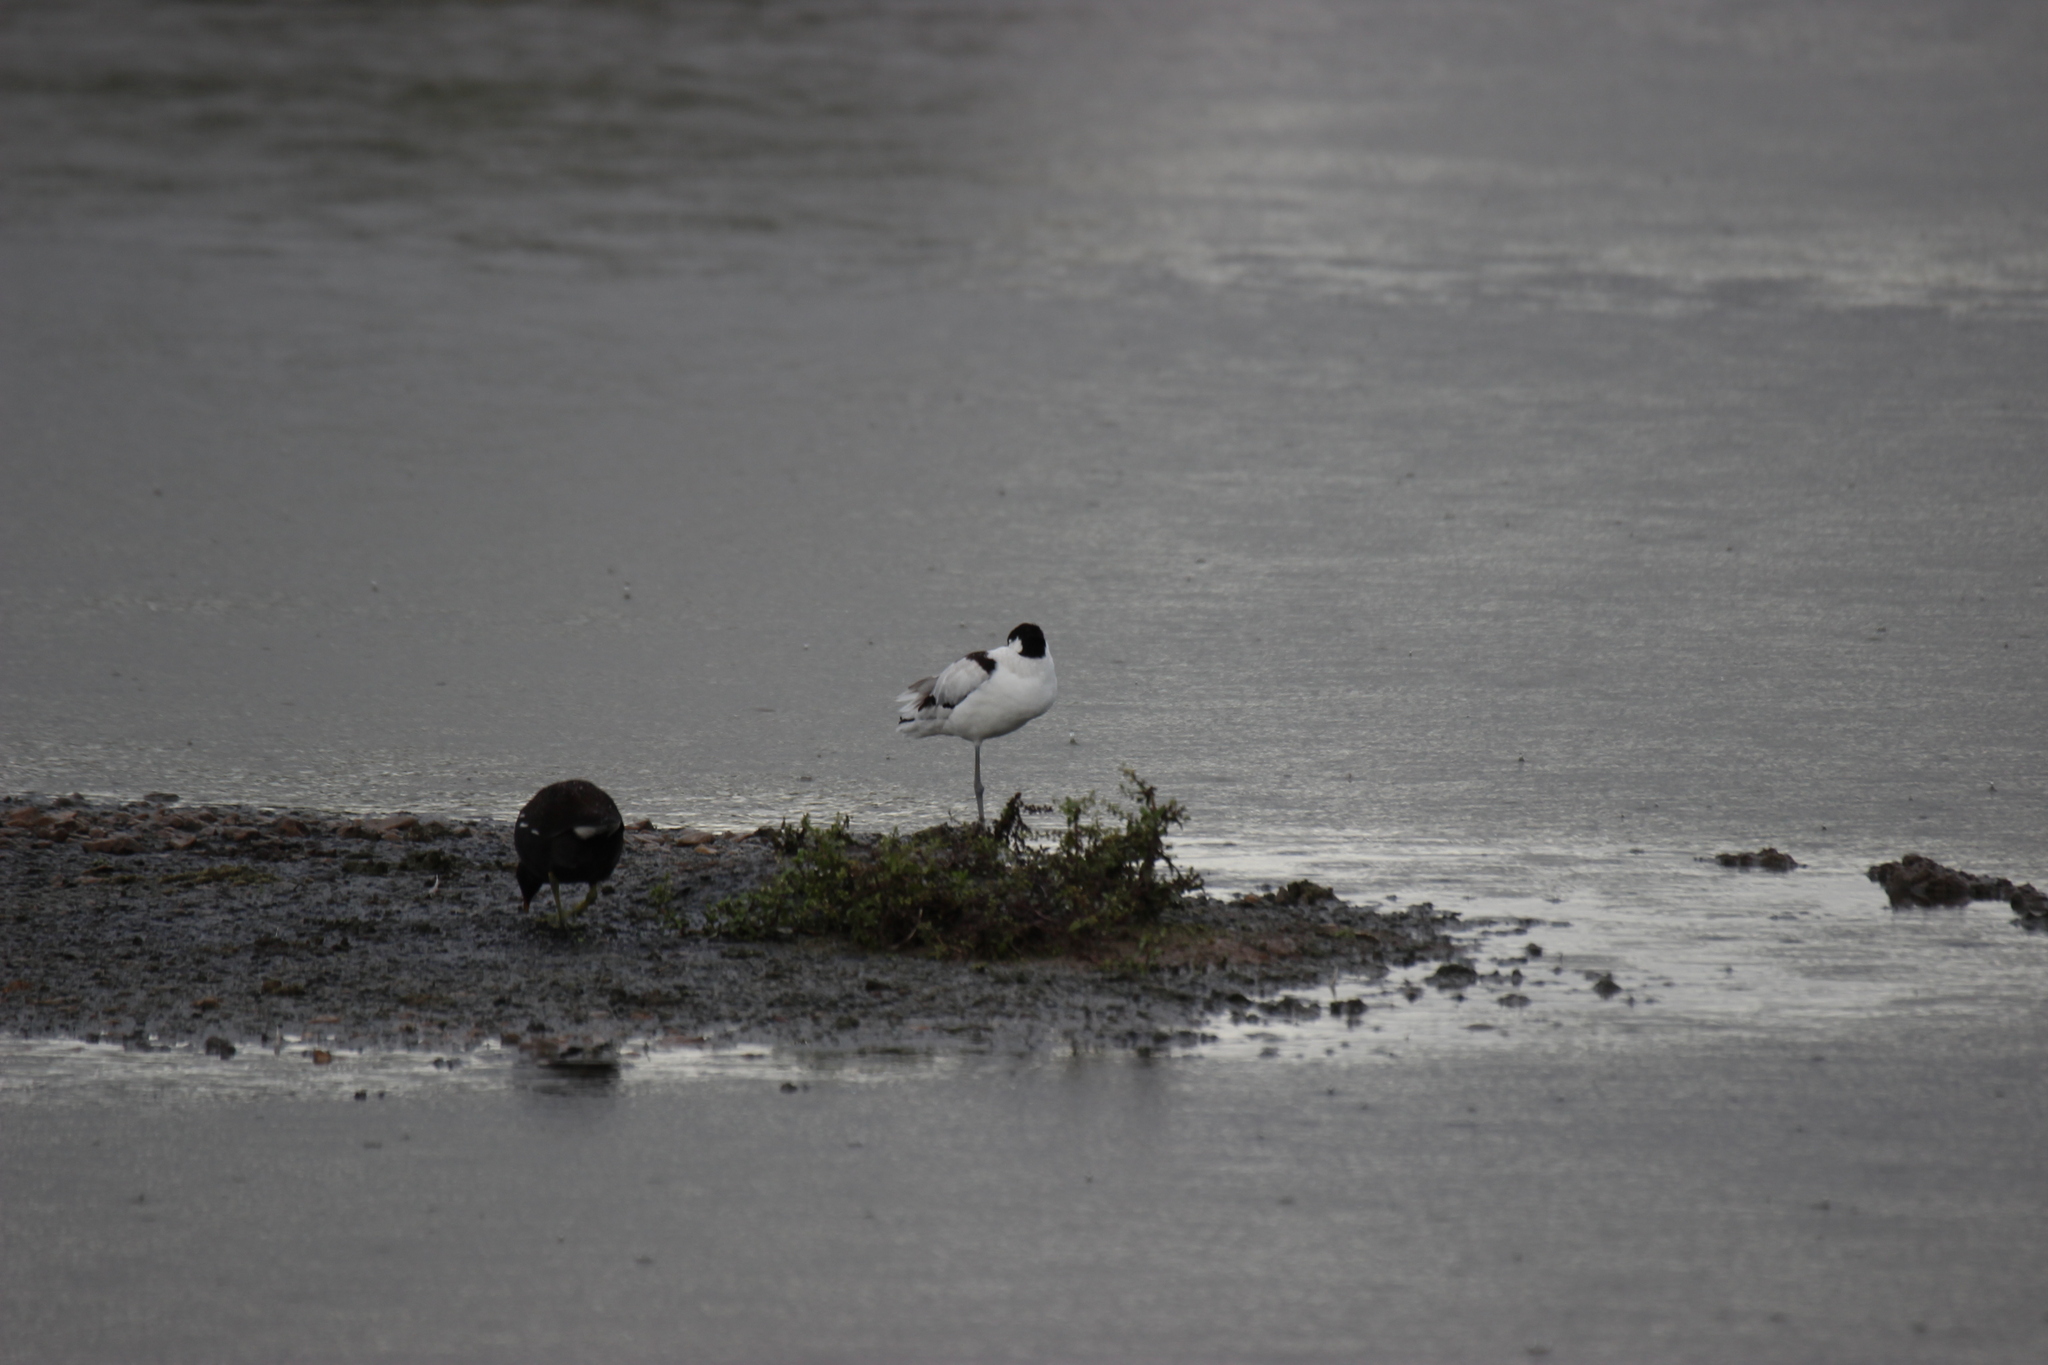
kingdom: Animalia
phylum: Chordata
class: Aves
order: Charadriiformes
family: Recurvirostridae
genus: Recurvirostra
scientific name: Recurvirostra avosetta
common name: Pied avocet
